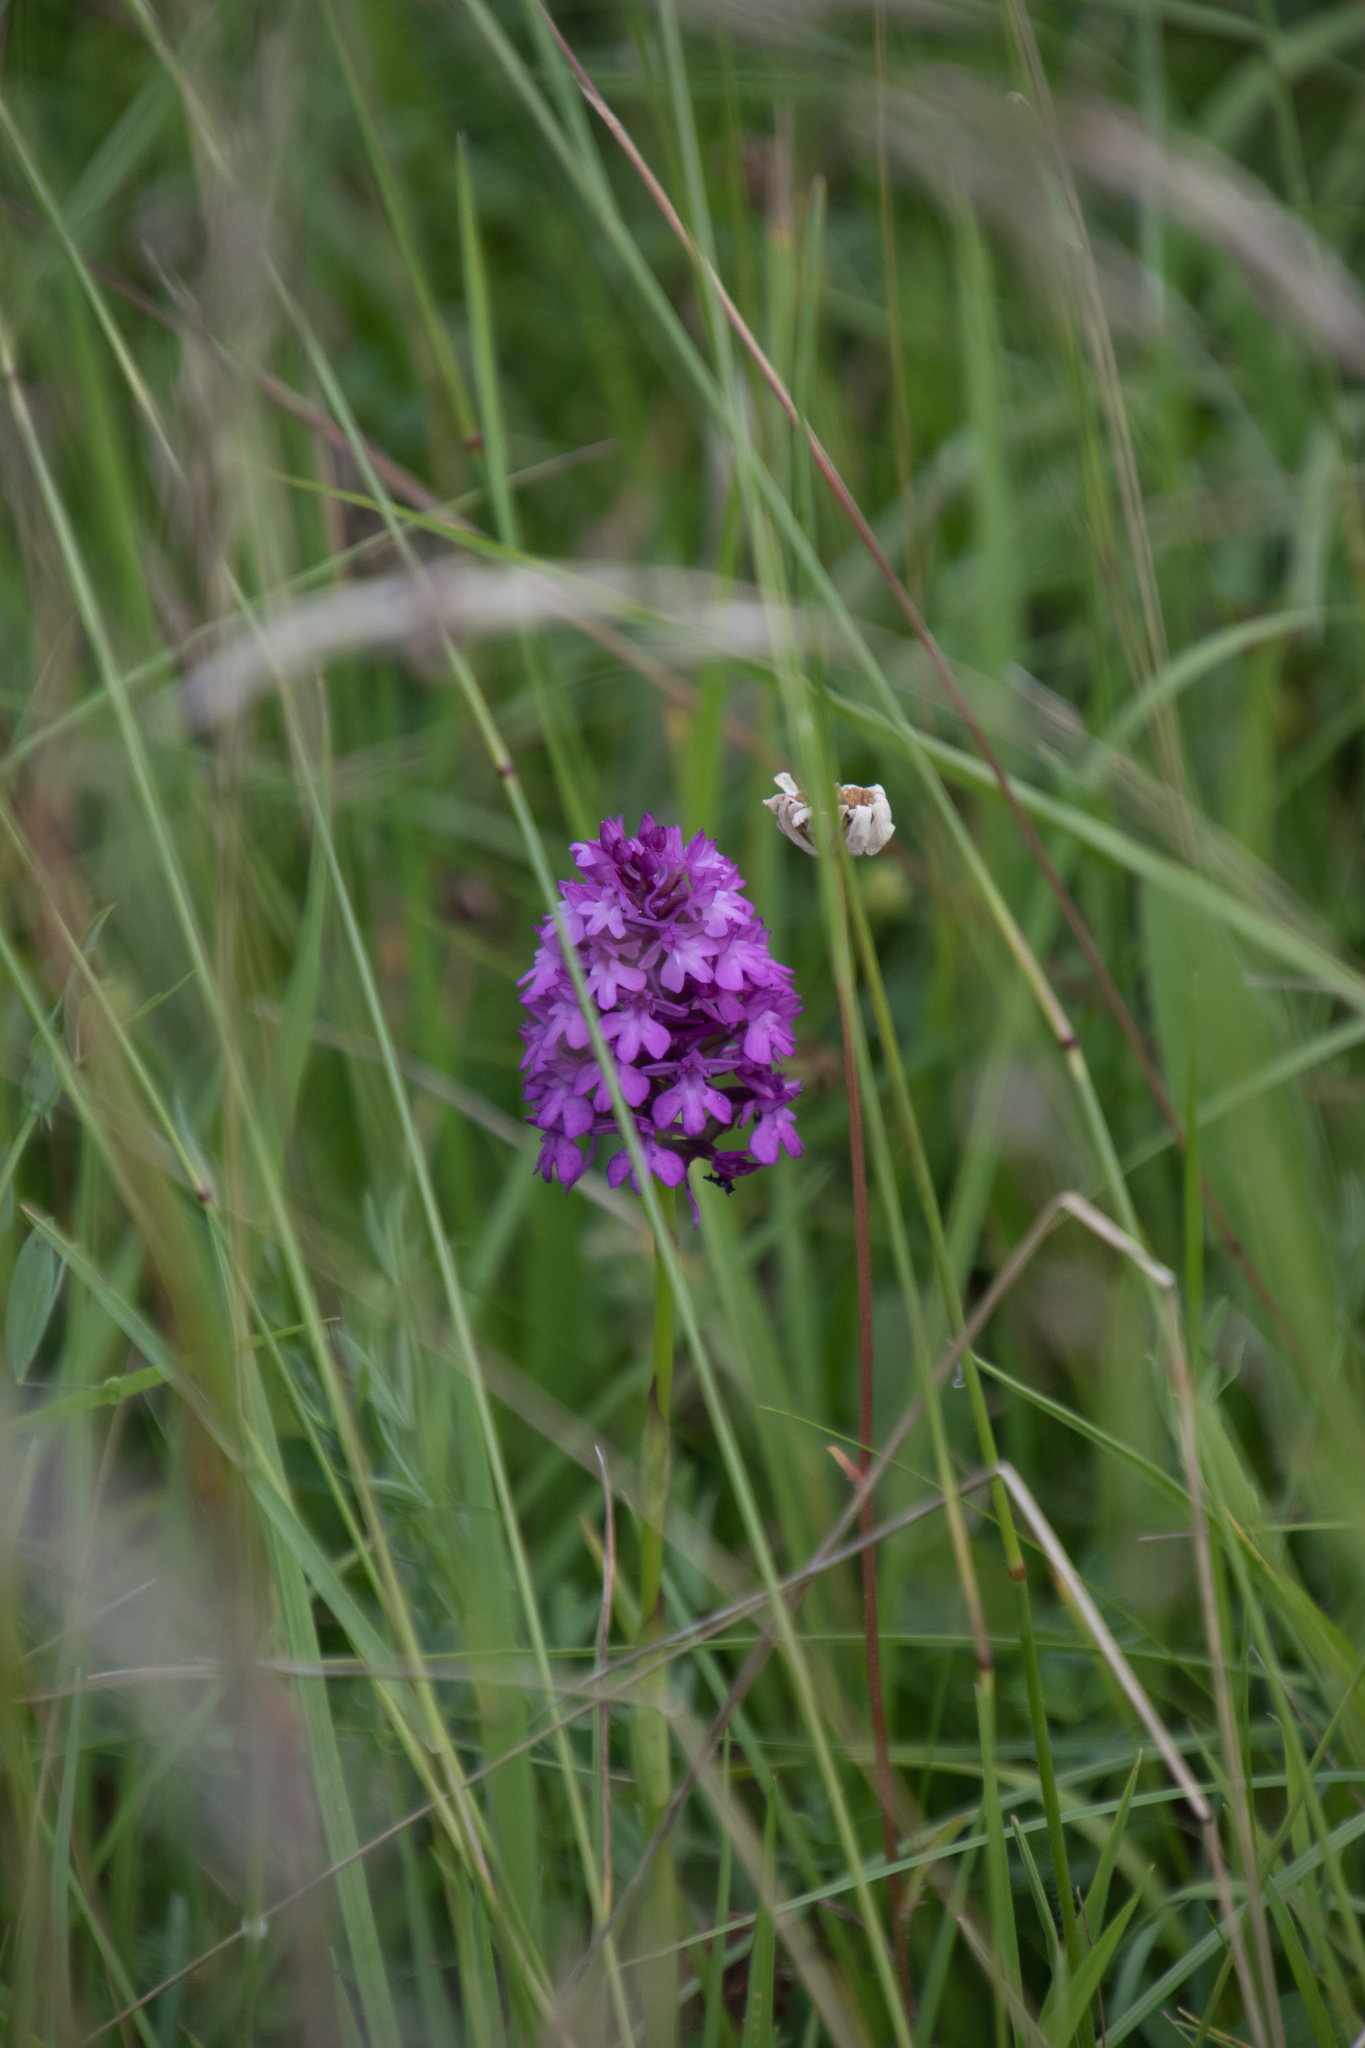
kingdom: Plantae
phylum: Tracheophyta
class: Liliopsida
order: Asparagales
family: Orchidaceae
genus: Anacamptis
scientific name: Anacamptis pyramidalis
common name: Pyramidal orchid
